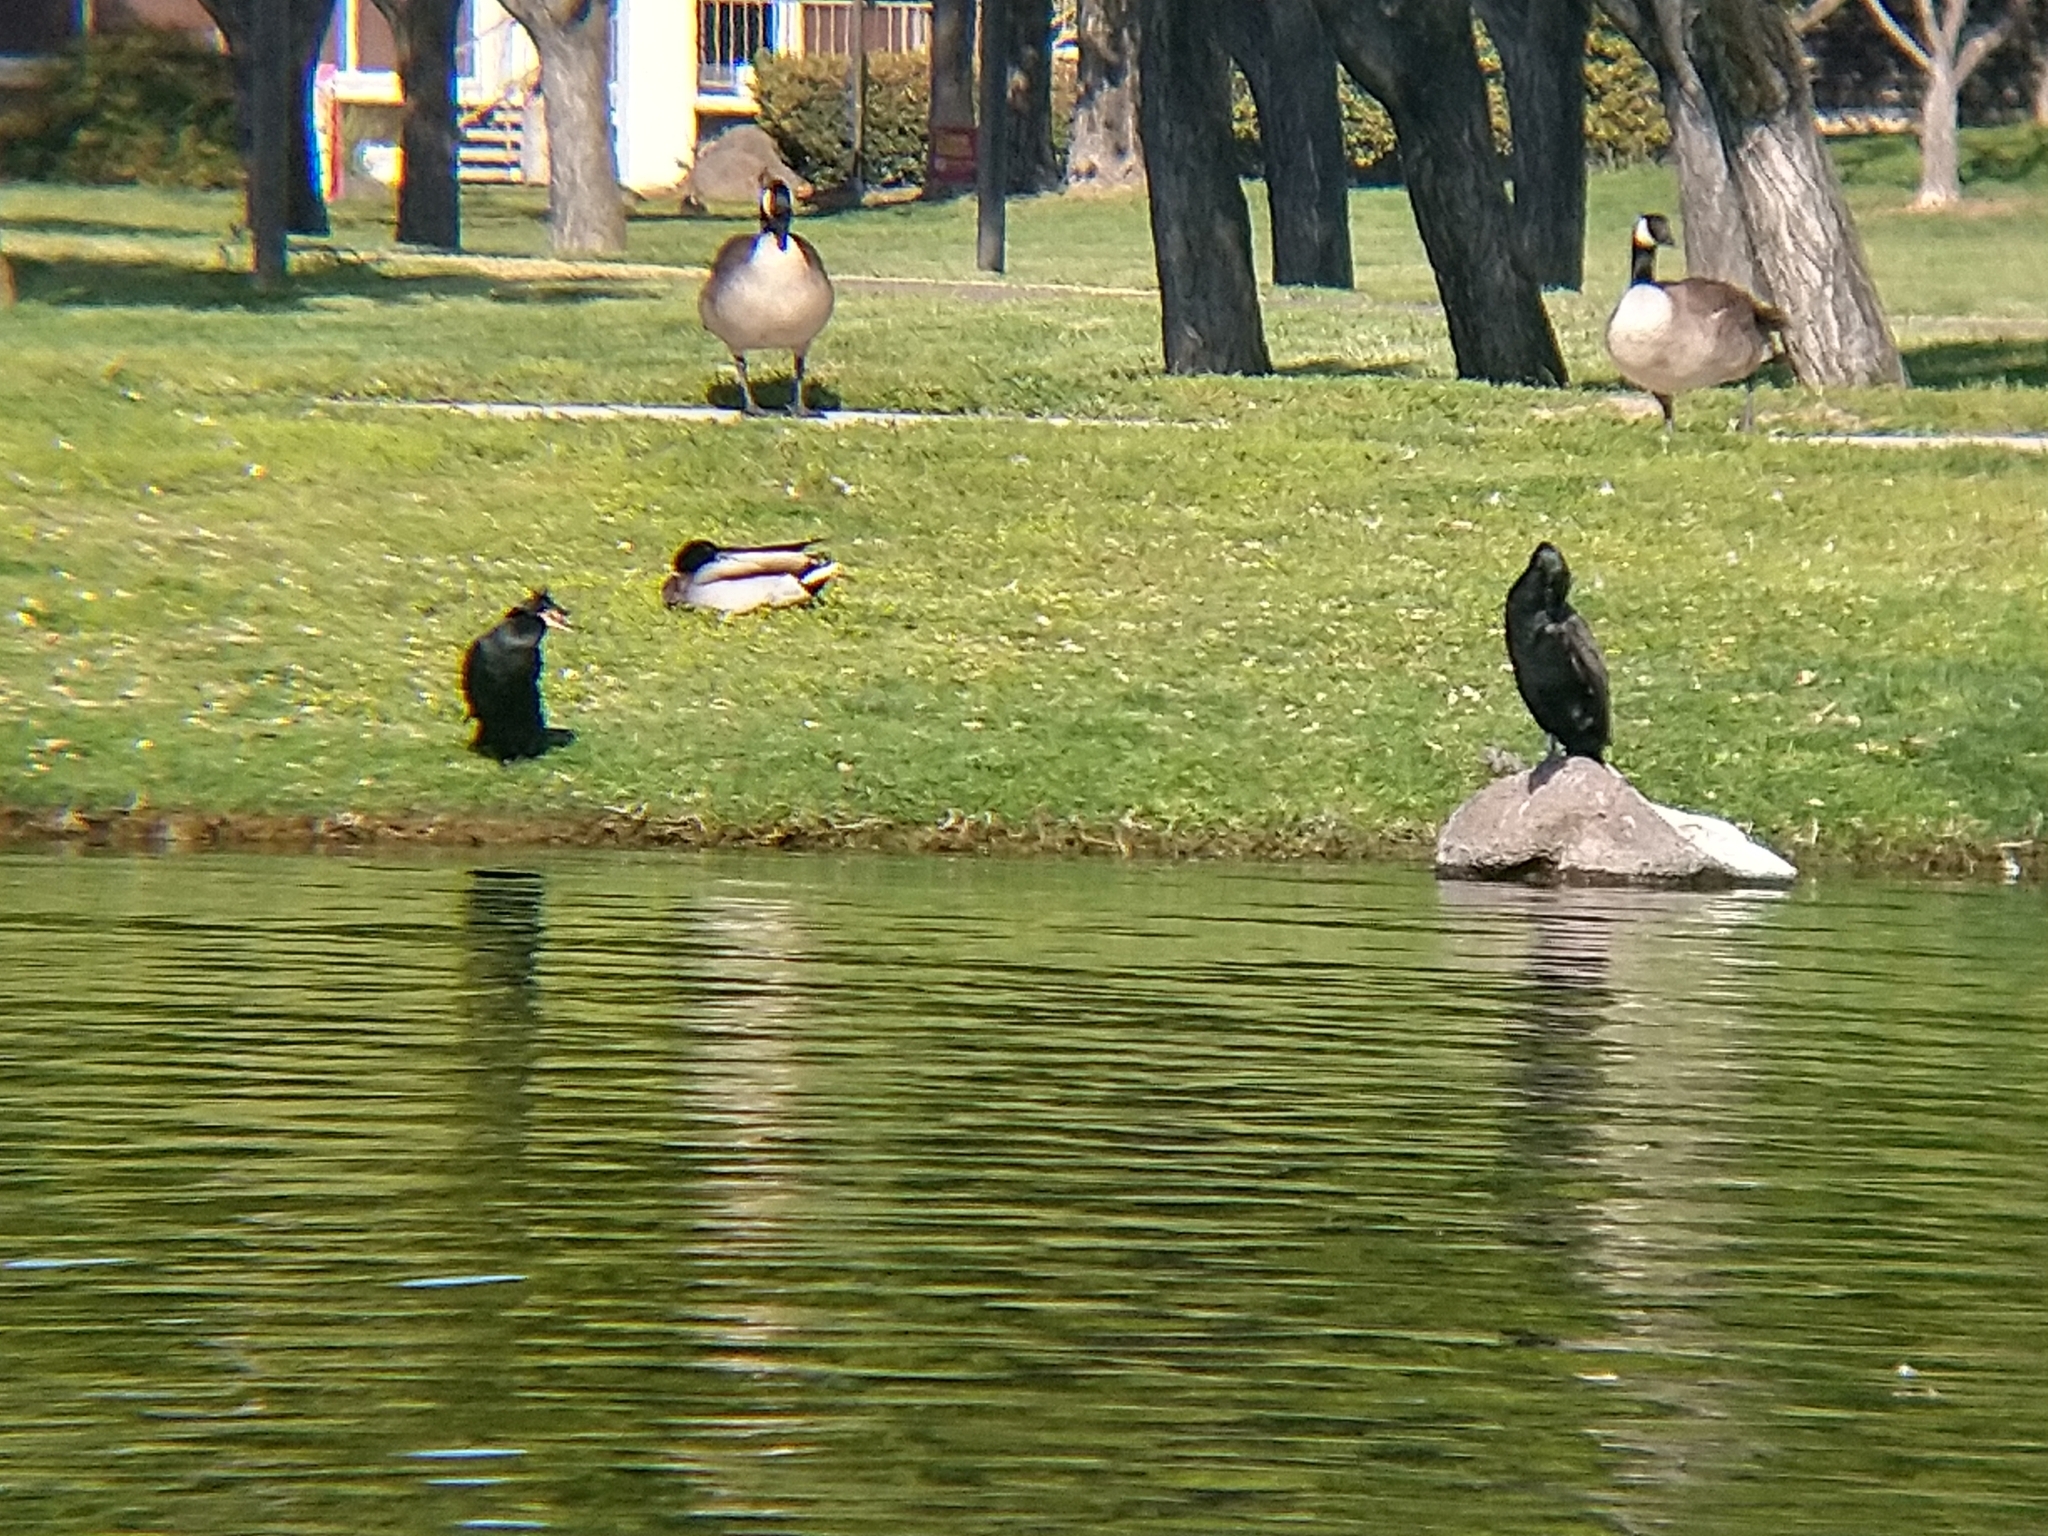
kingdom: Animalia
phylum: Chordata
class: Aves
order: Suliformes
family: Phalacrocoracidae
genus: Phalacrocorax
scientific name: Phalacrocorax auritus
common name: Double-crested cormorant
